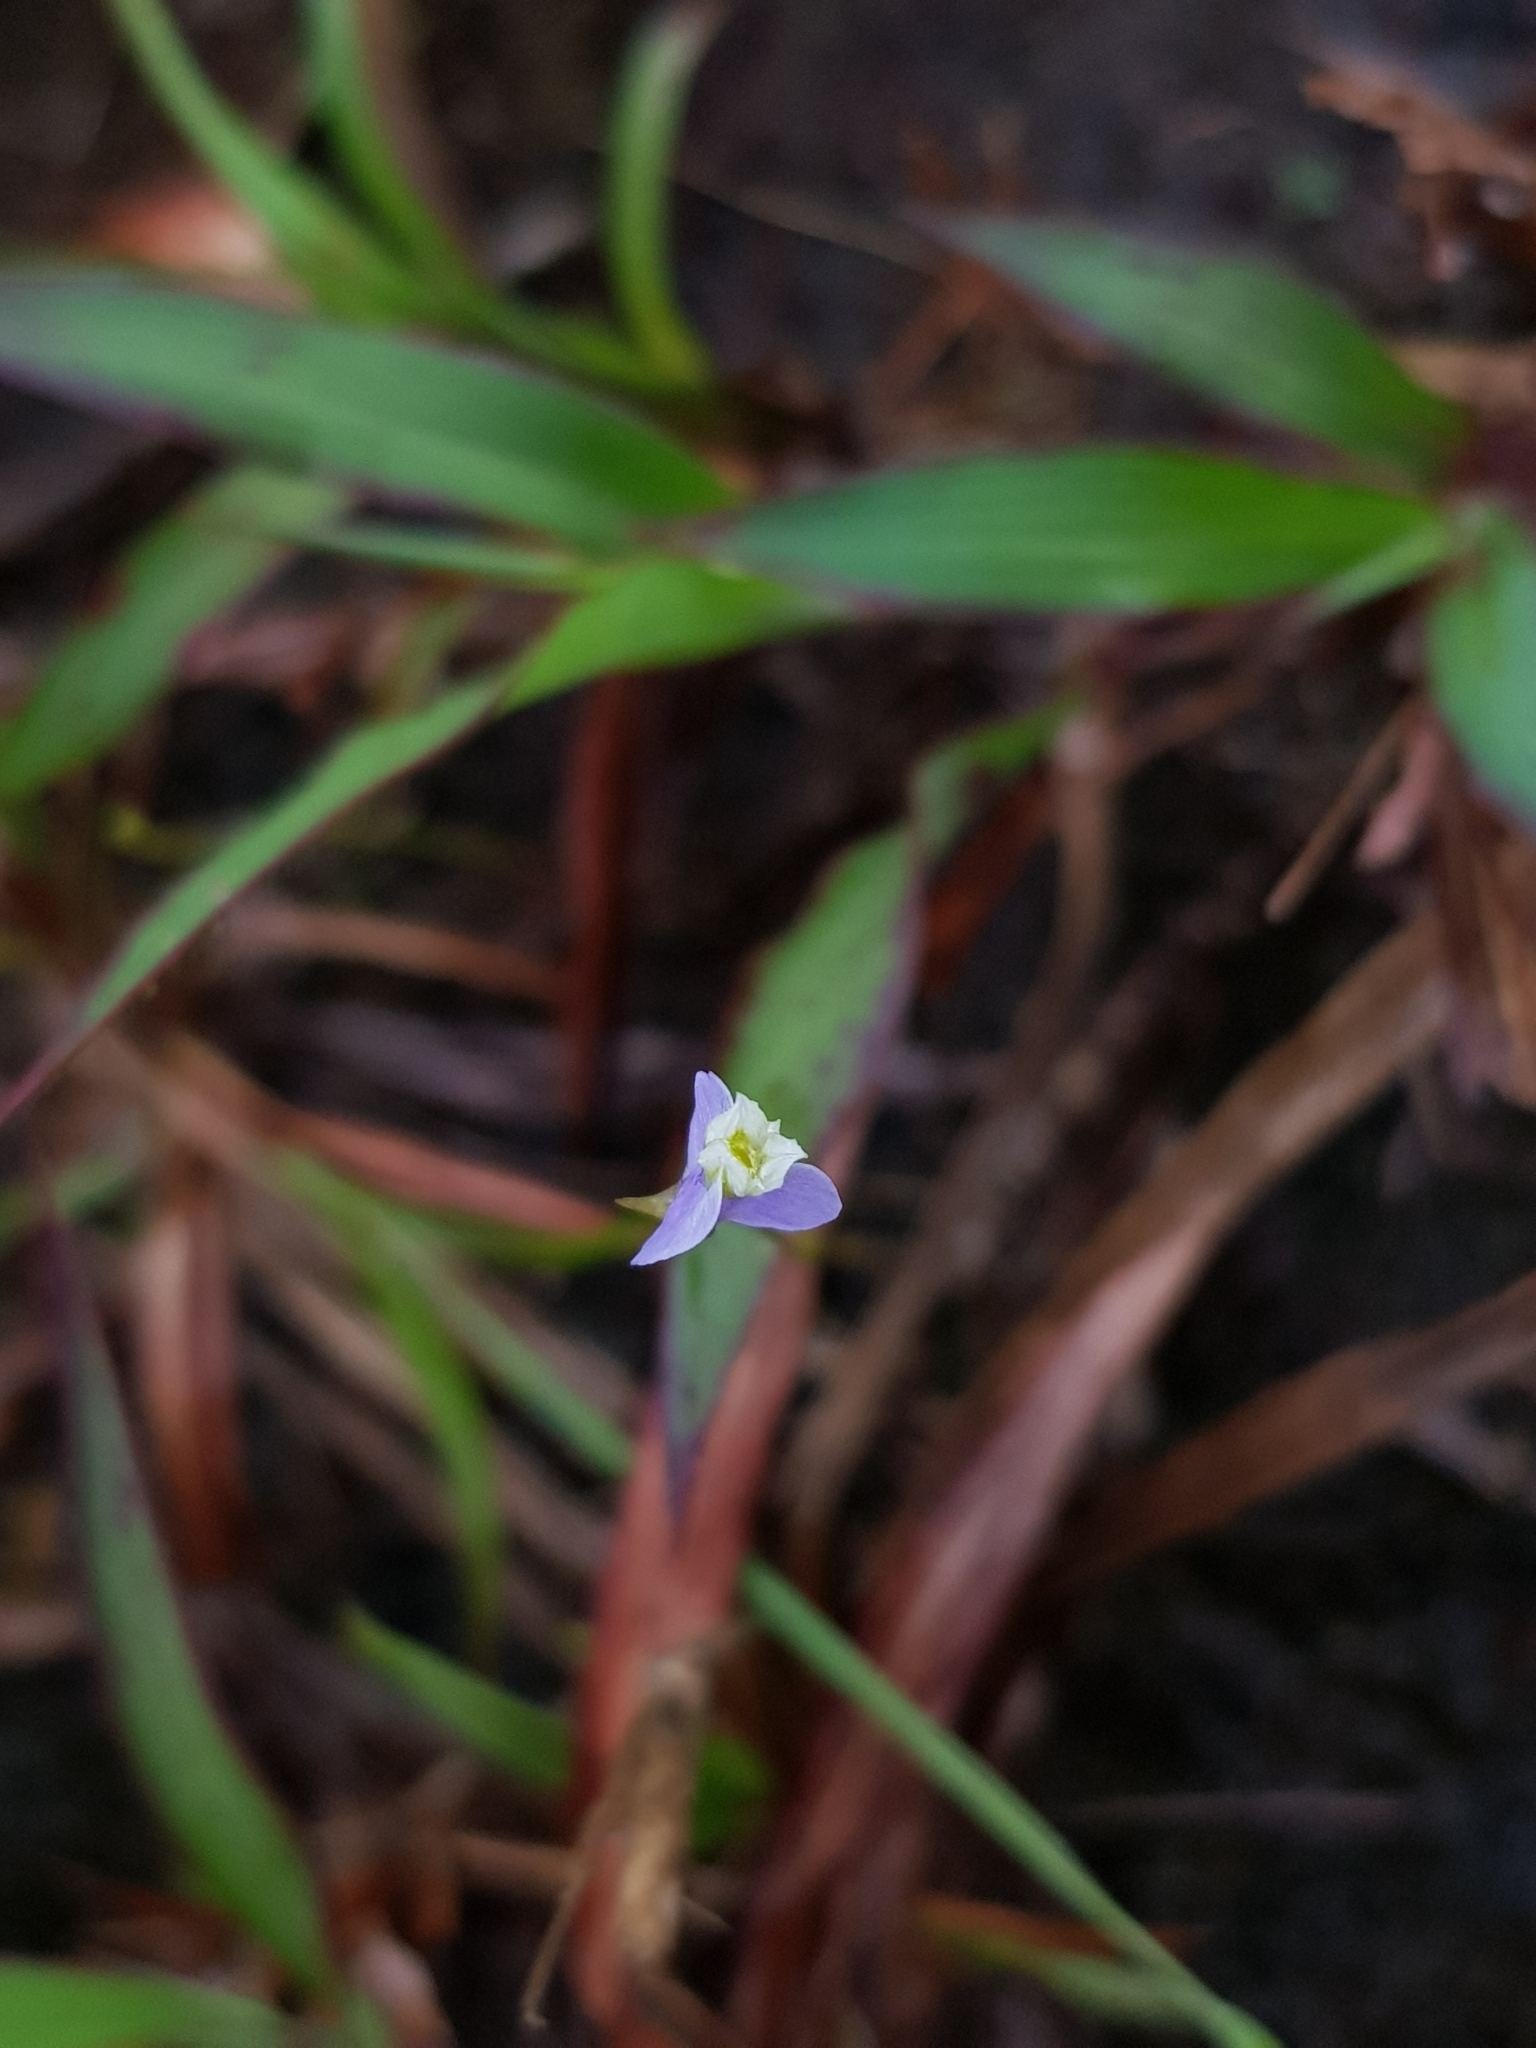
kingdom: Plantae
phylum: Tracheophyta
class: Liliopsida
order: Dioscoreales
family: Burmanniaceae
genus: Burmannia
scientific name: Burmannia coelestis
